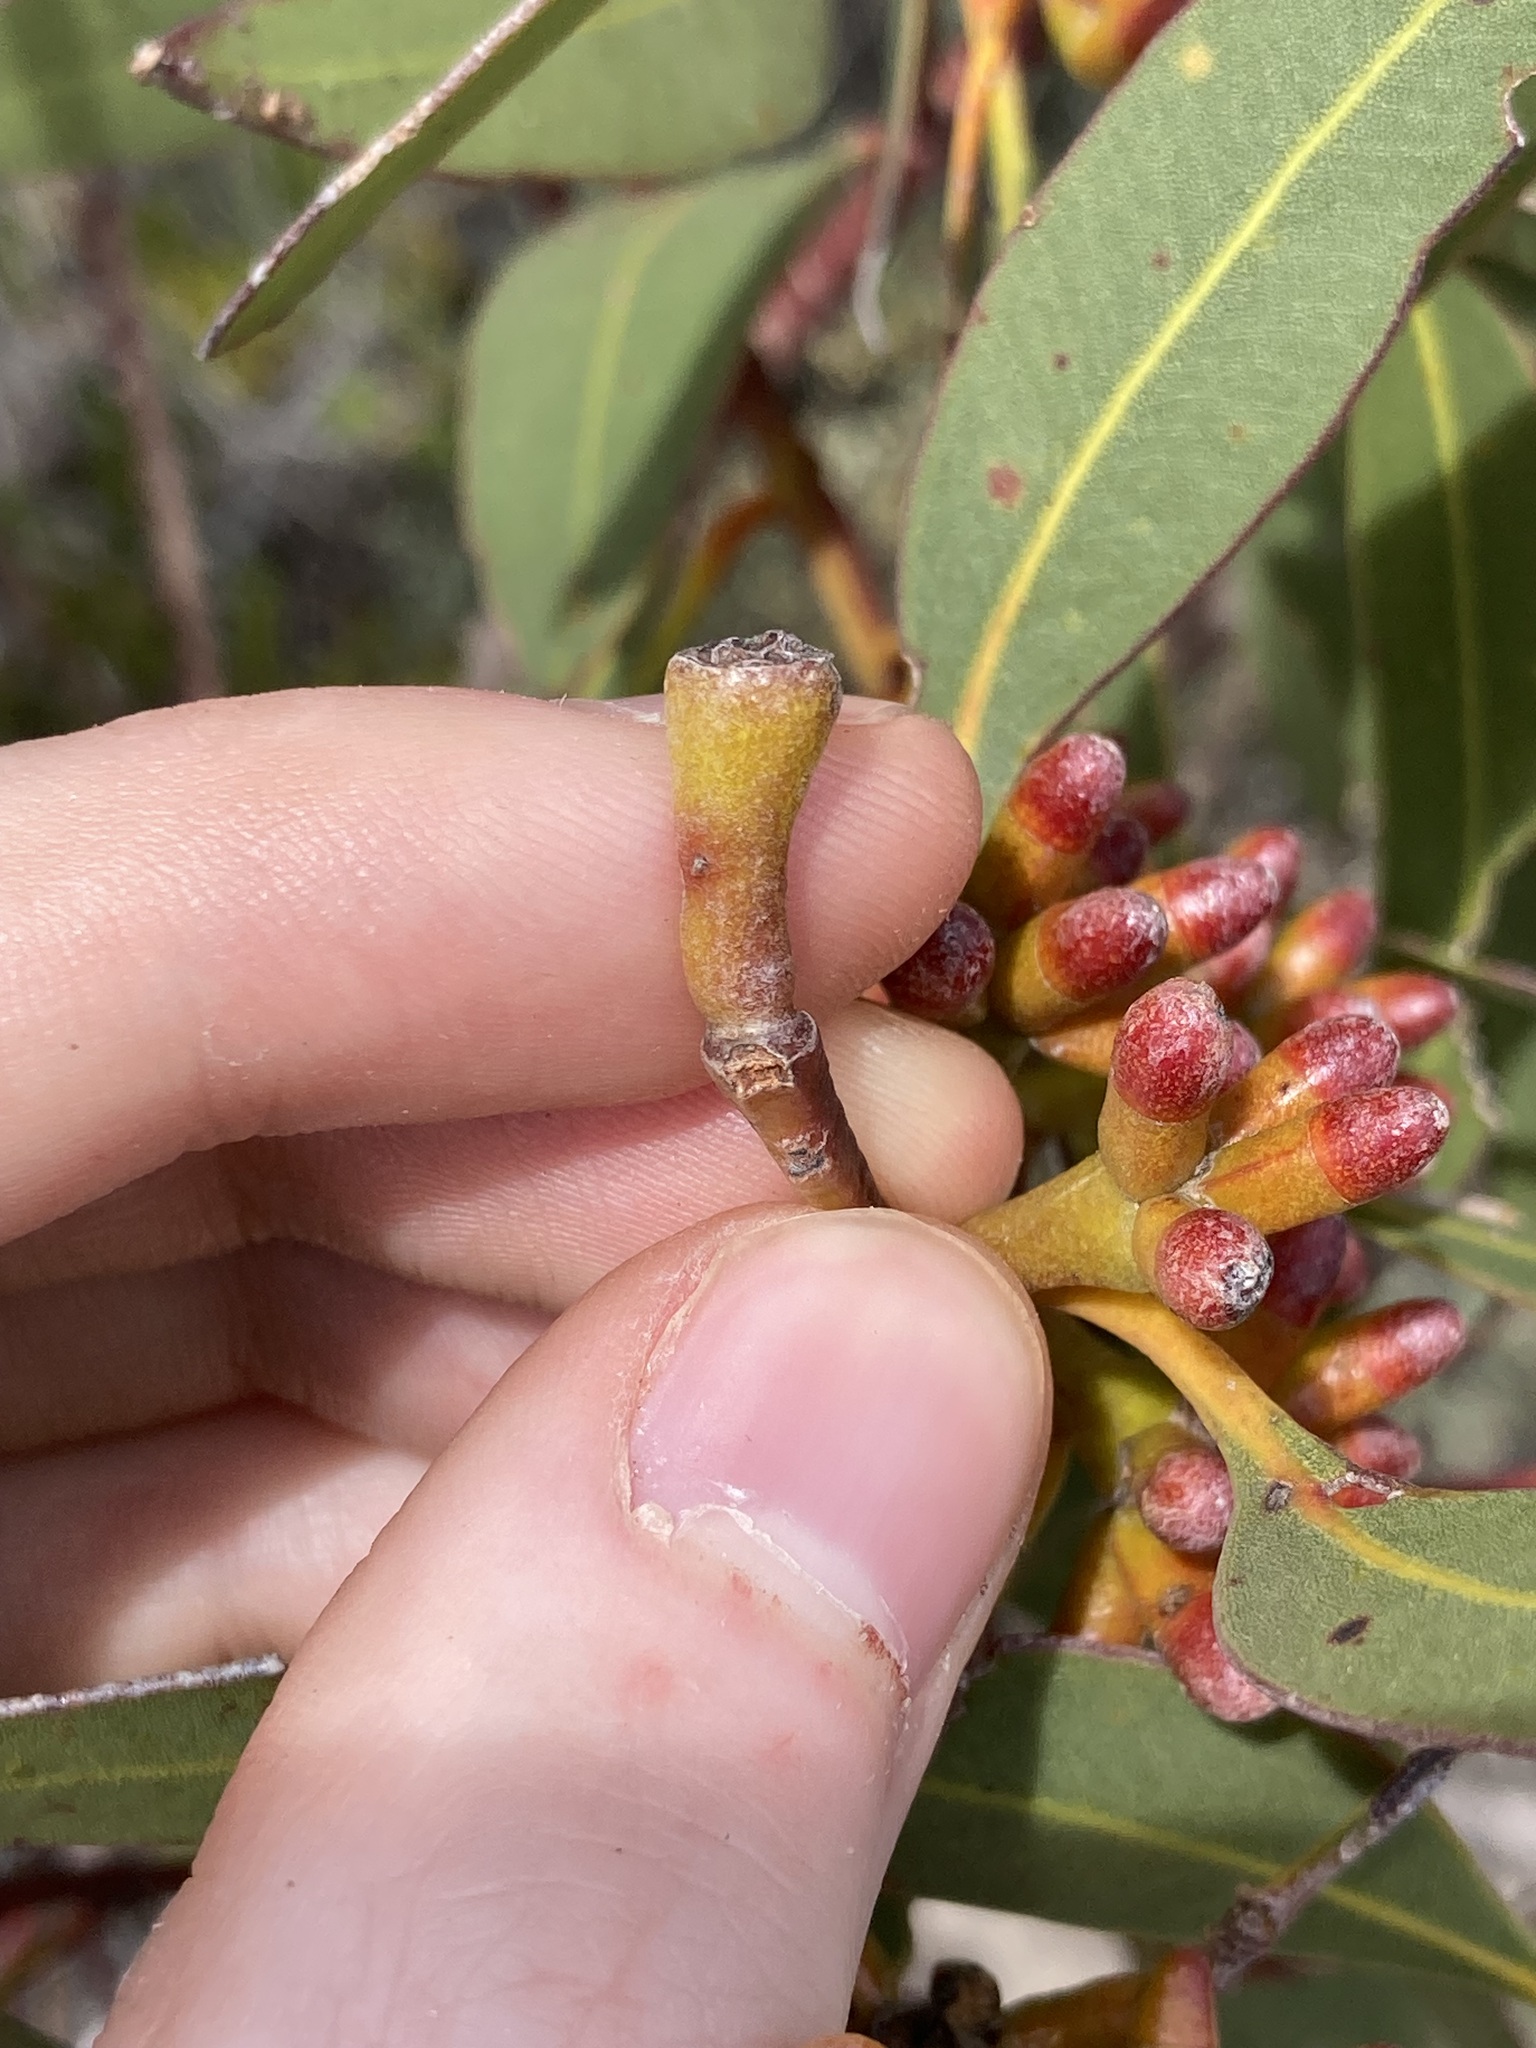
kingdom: Plantae
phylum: Tracheophyta
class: Magnoliopsida
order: Myrtales
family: Myrtaceae
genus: Eucalyptus
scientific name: Eucalyptus uncinata
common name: Hooked-leaved mallee
